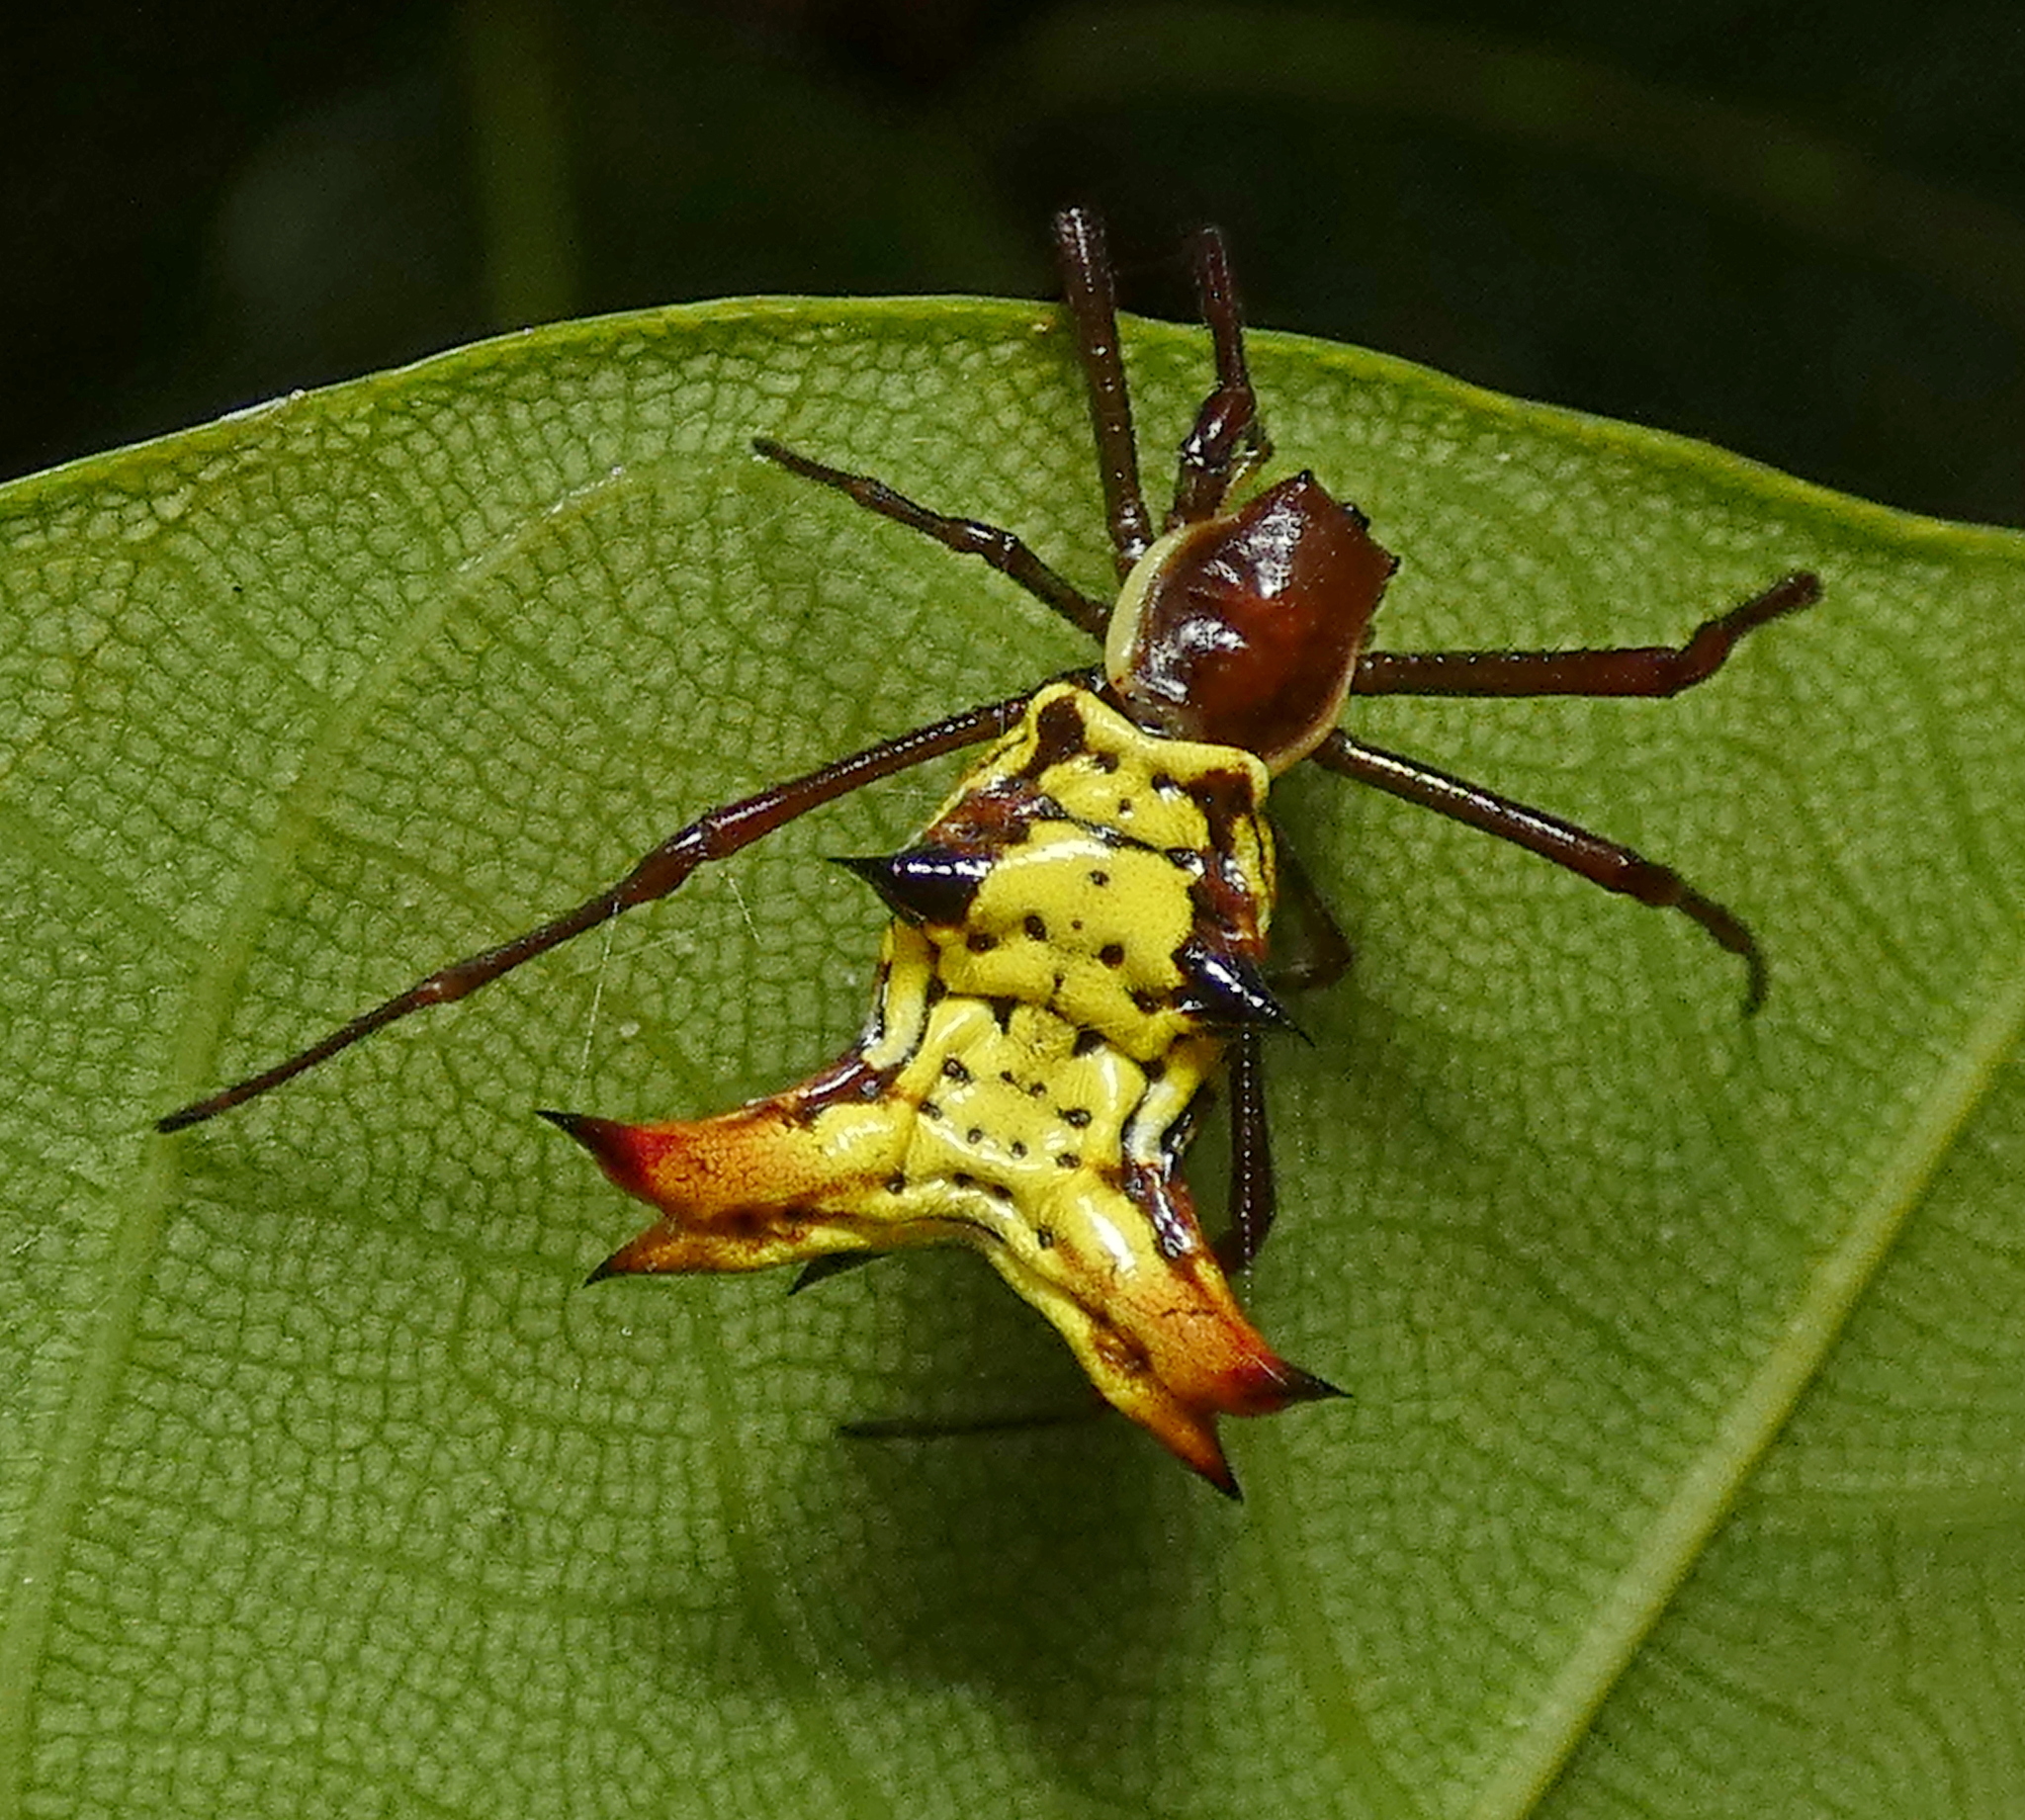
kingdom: Animalia
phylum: Arthropoda
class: Arachnida
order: Araneae
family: Araneidae
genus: Micrathena
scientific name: Micrathena fissispina
